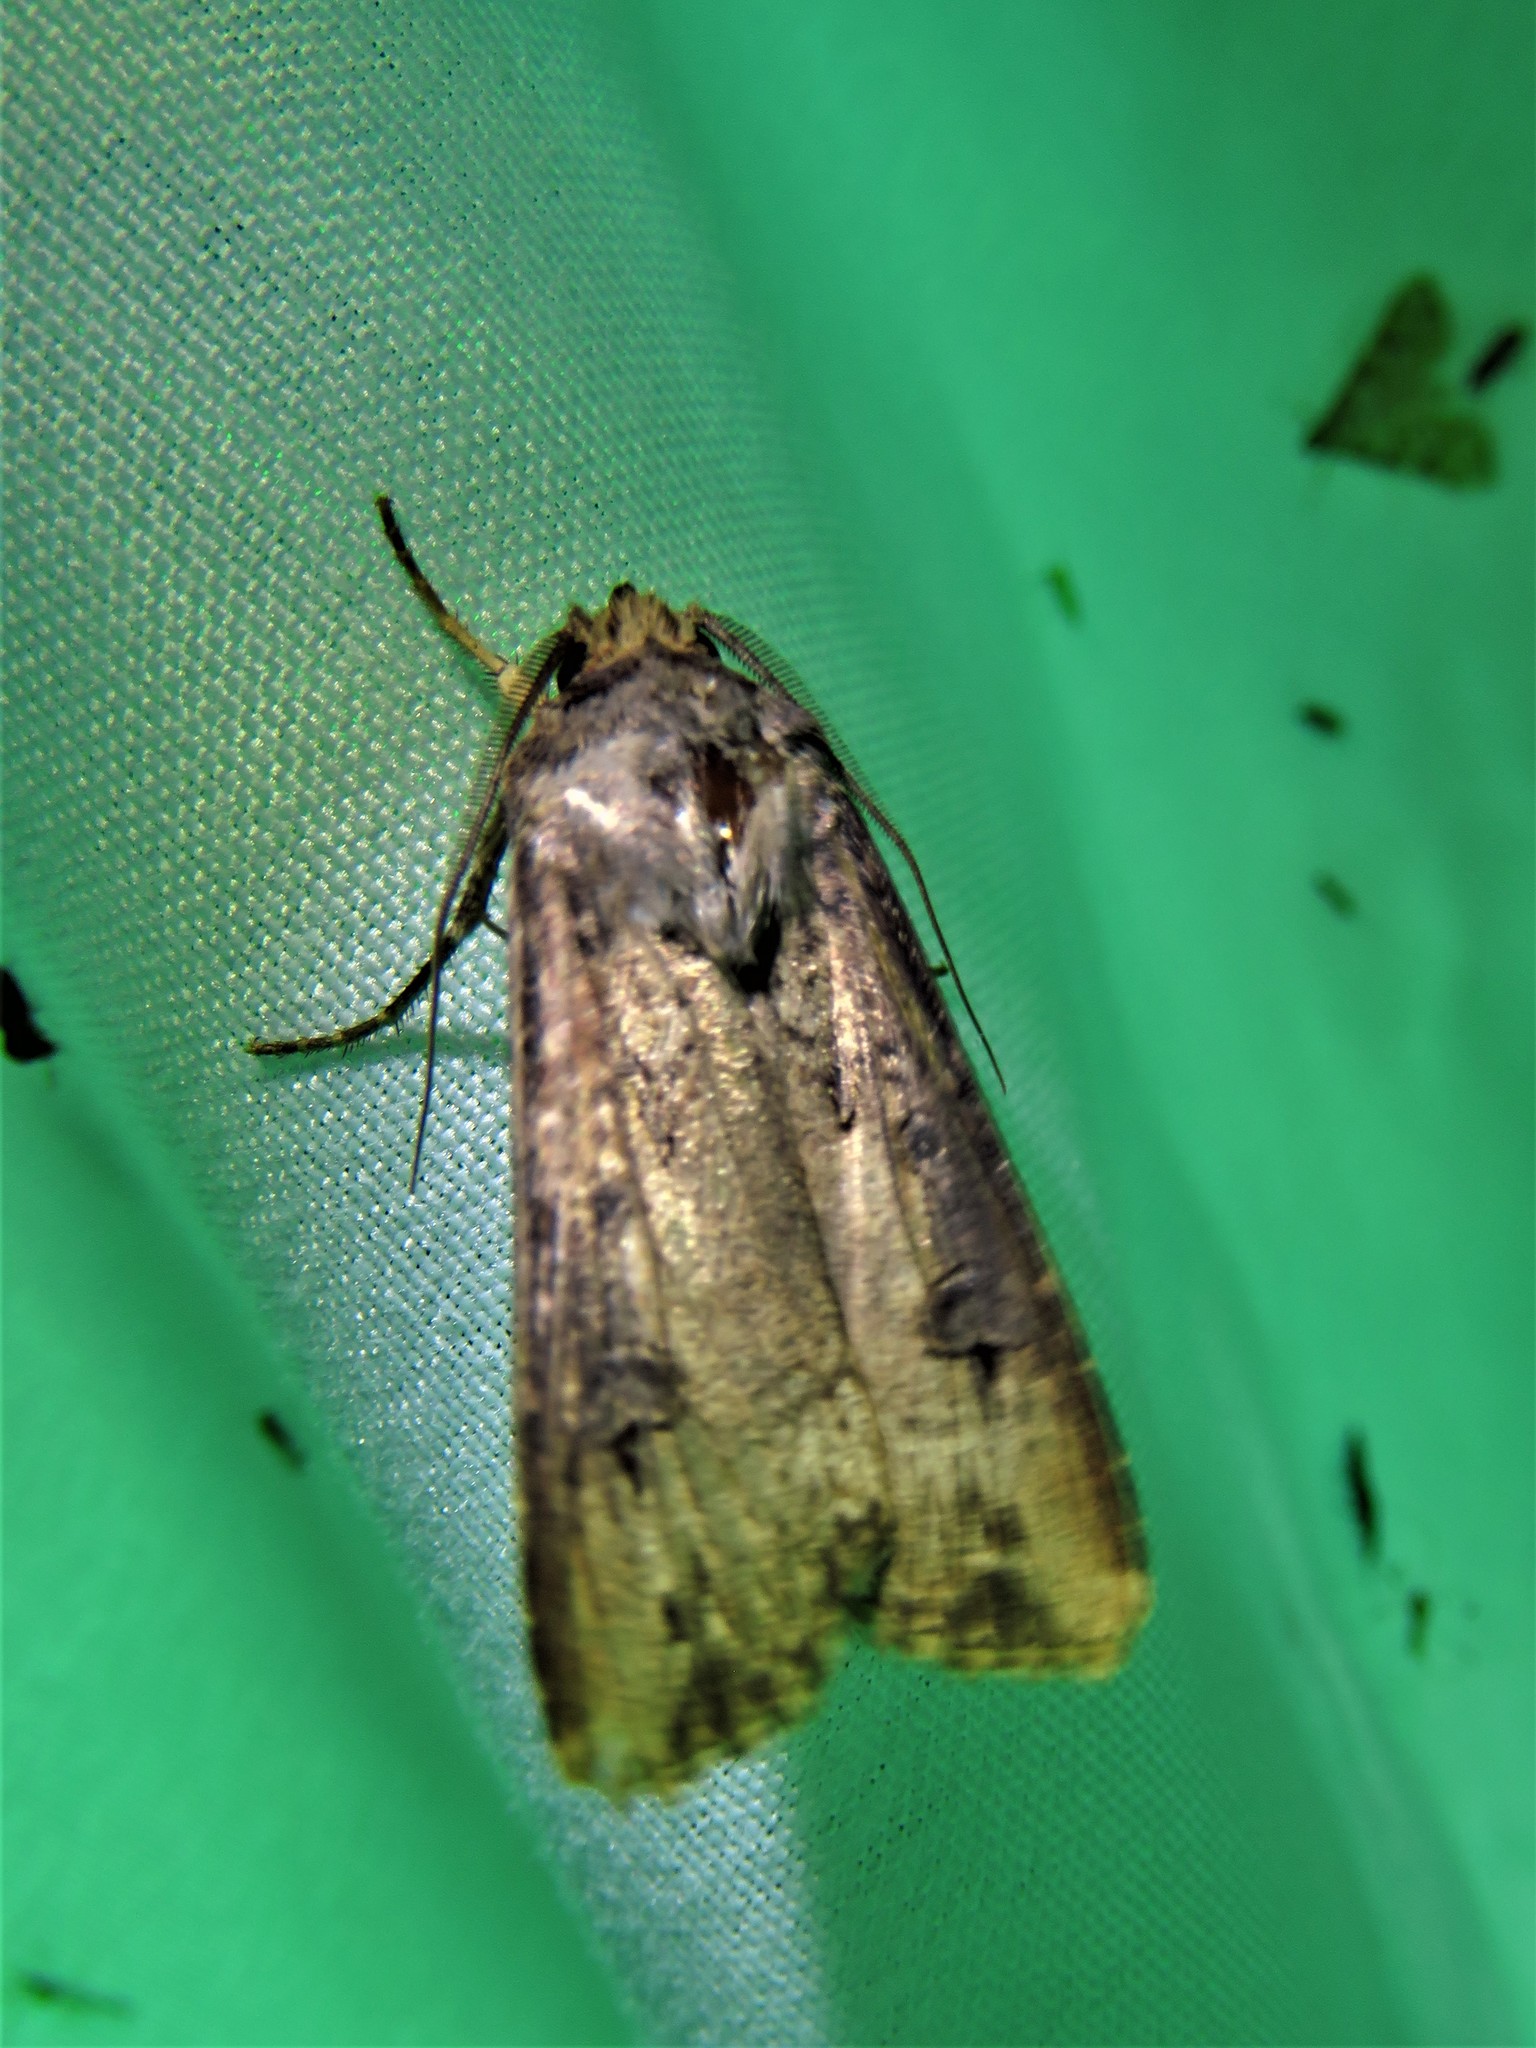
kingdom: Animalia
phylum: Arthropoda
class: Insecta
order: Lepidoptera
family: Noctuidae
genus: Agrotis
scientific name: Agrotis ipsilon
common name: Dark sword-grass
